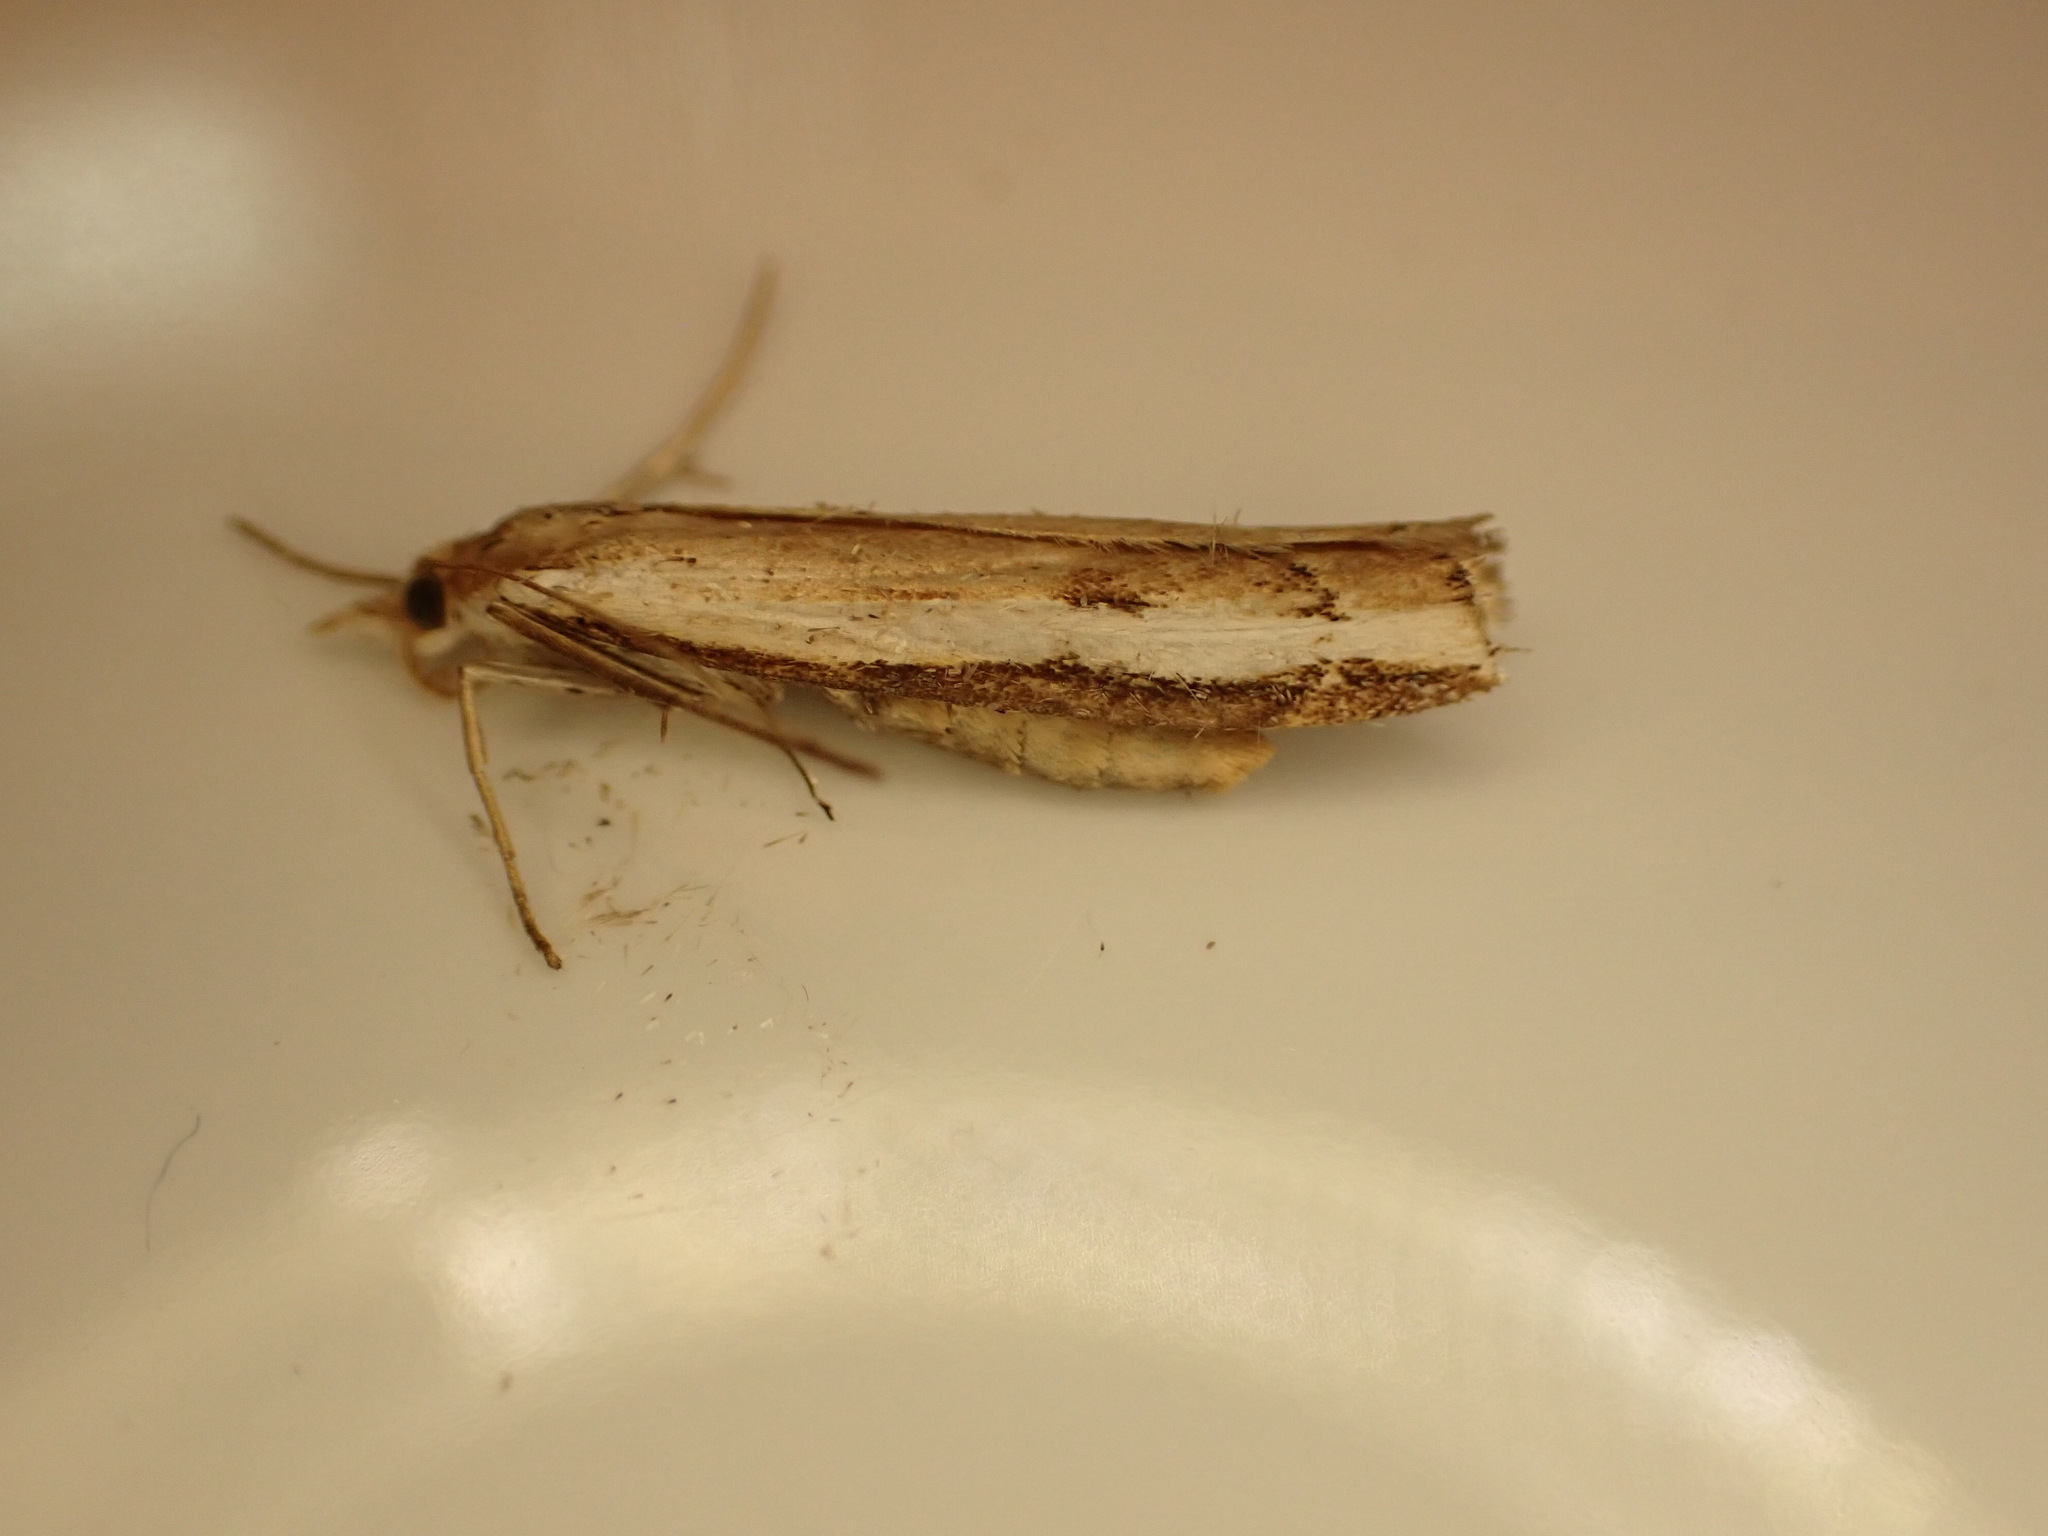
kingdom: Animalia
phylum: Arthropoda
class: Insecta
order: Lepidoptera
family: Crambidae
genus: Orocrambus
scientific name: Orocrambus flexuosellus
